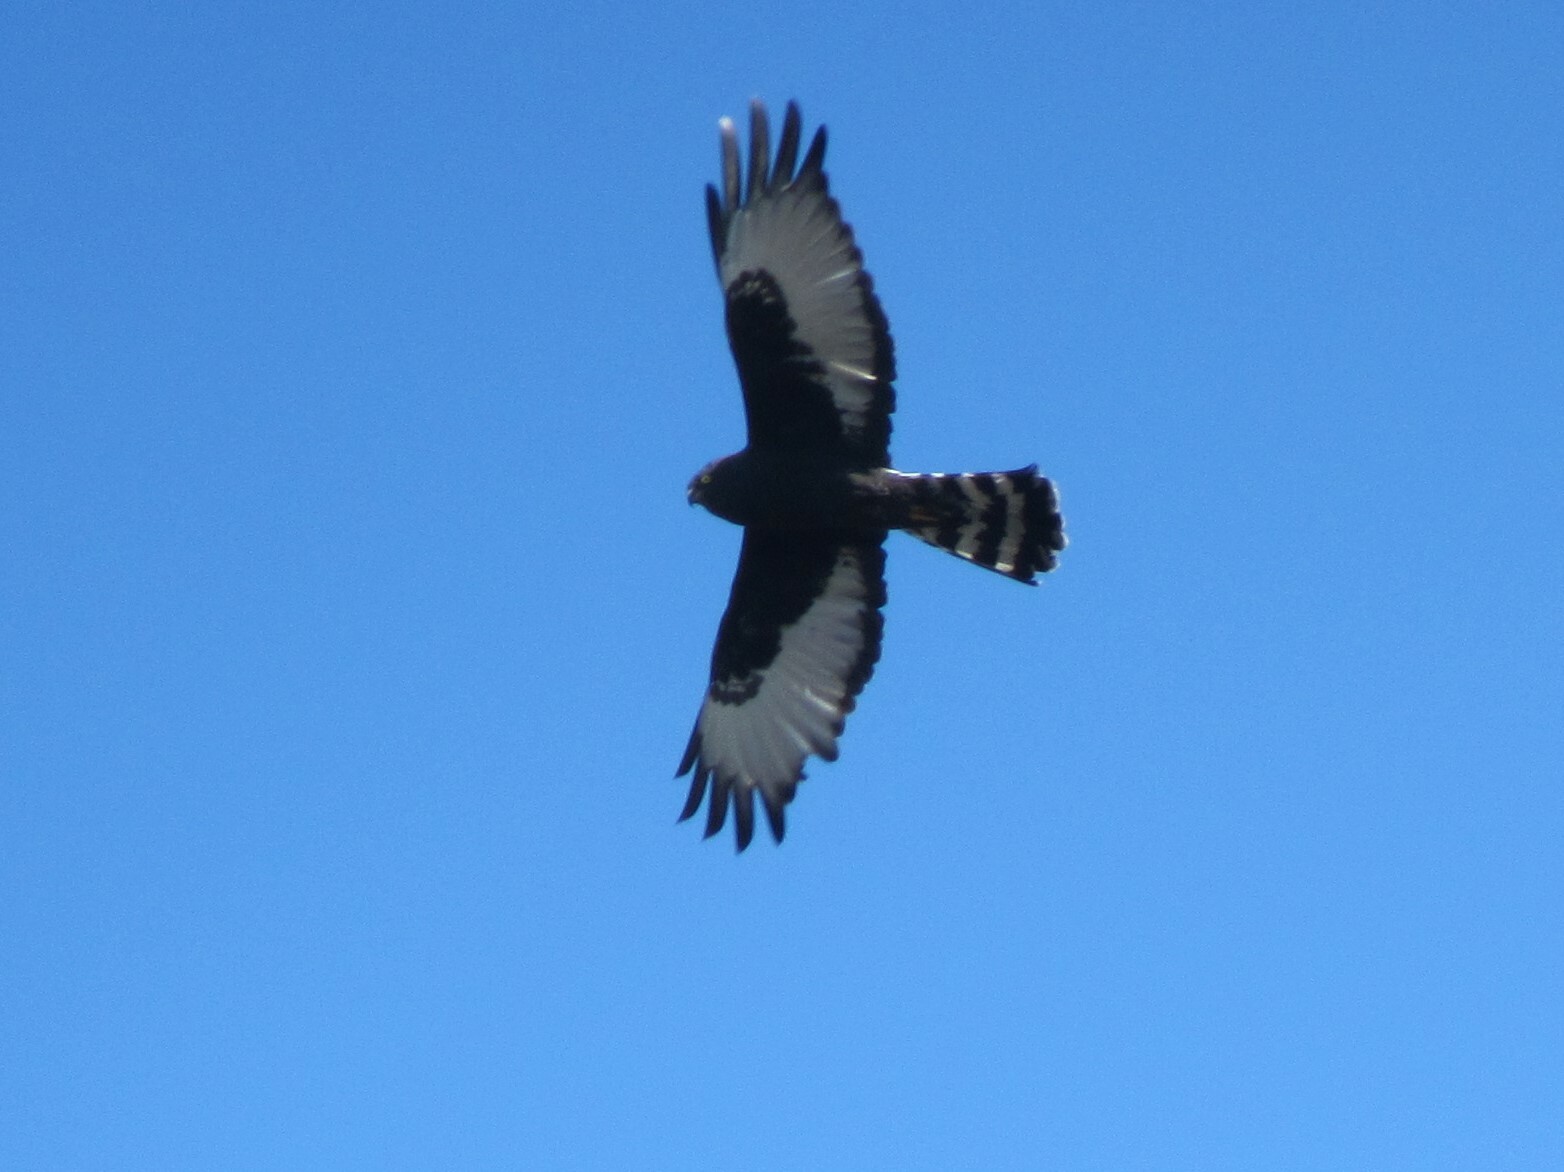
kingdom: Animalia
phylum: Chordata
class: Aves
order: Accipitriformes
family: Accipitridae
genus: Circus
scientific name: Circus maurus
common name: Black harrier
